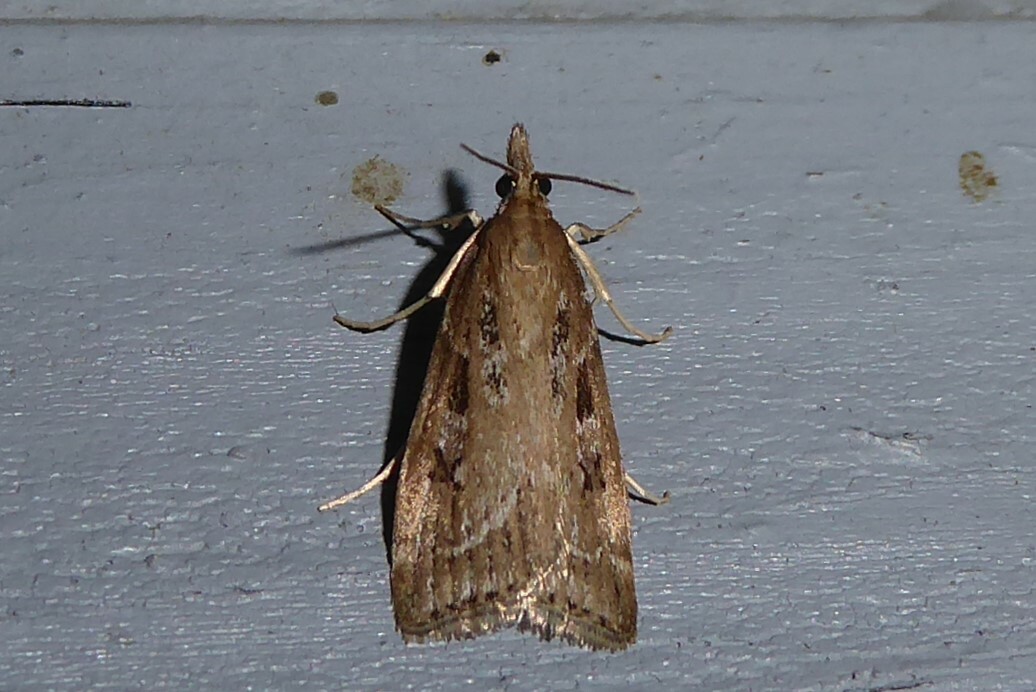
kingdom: Animalia
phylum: Arthropoda
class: Insecta
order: Lepidoptera
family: Crambidae
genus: Eudonia
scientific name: Eudonia octophora
